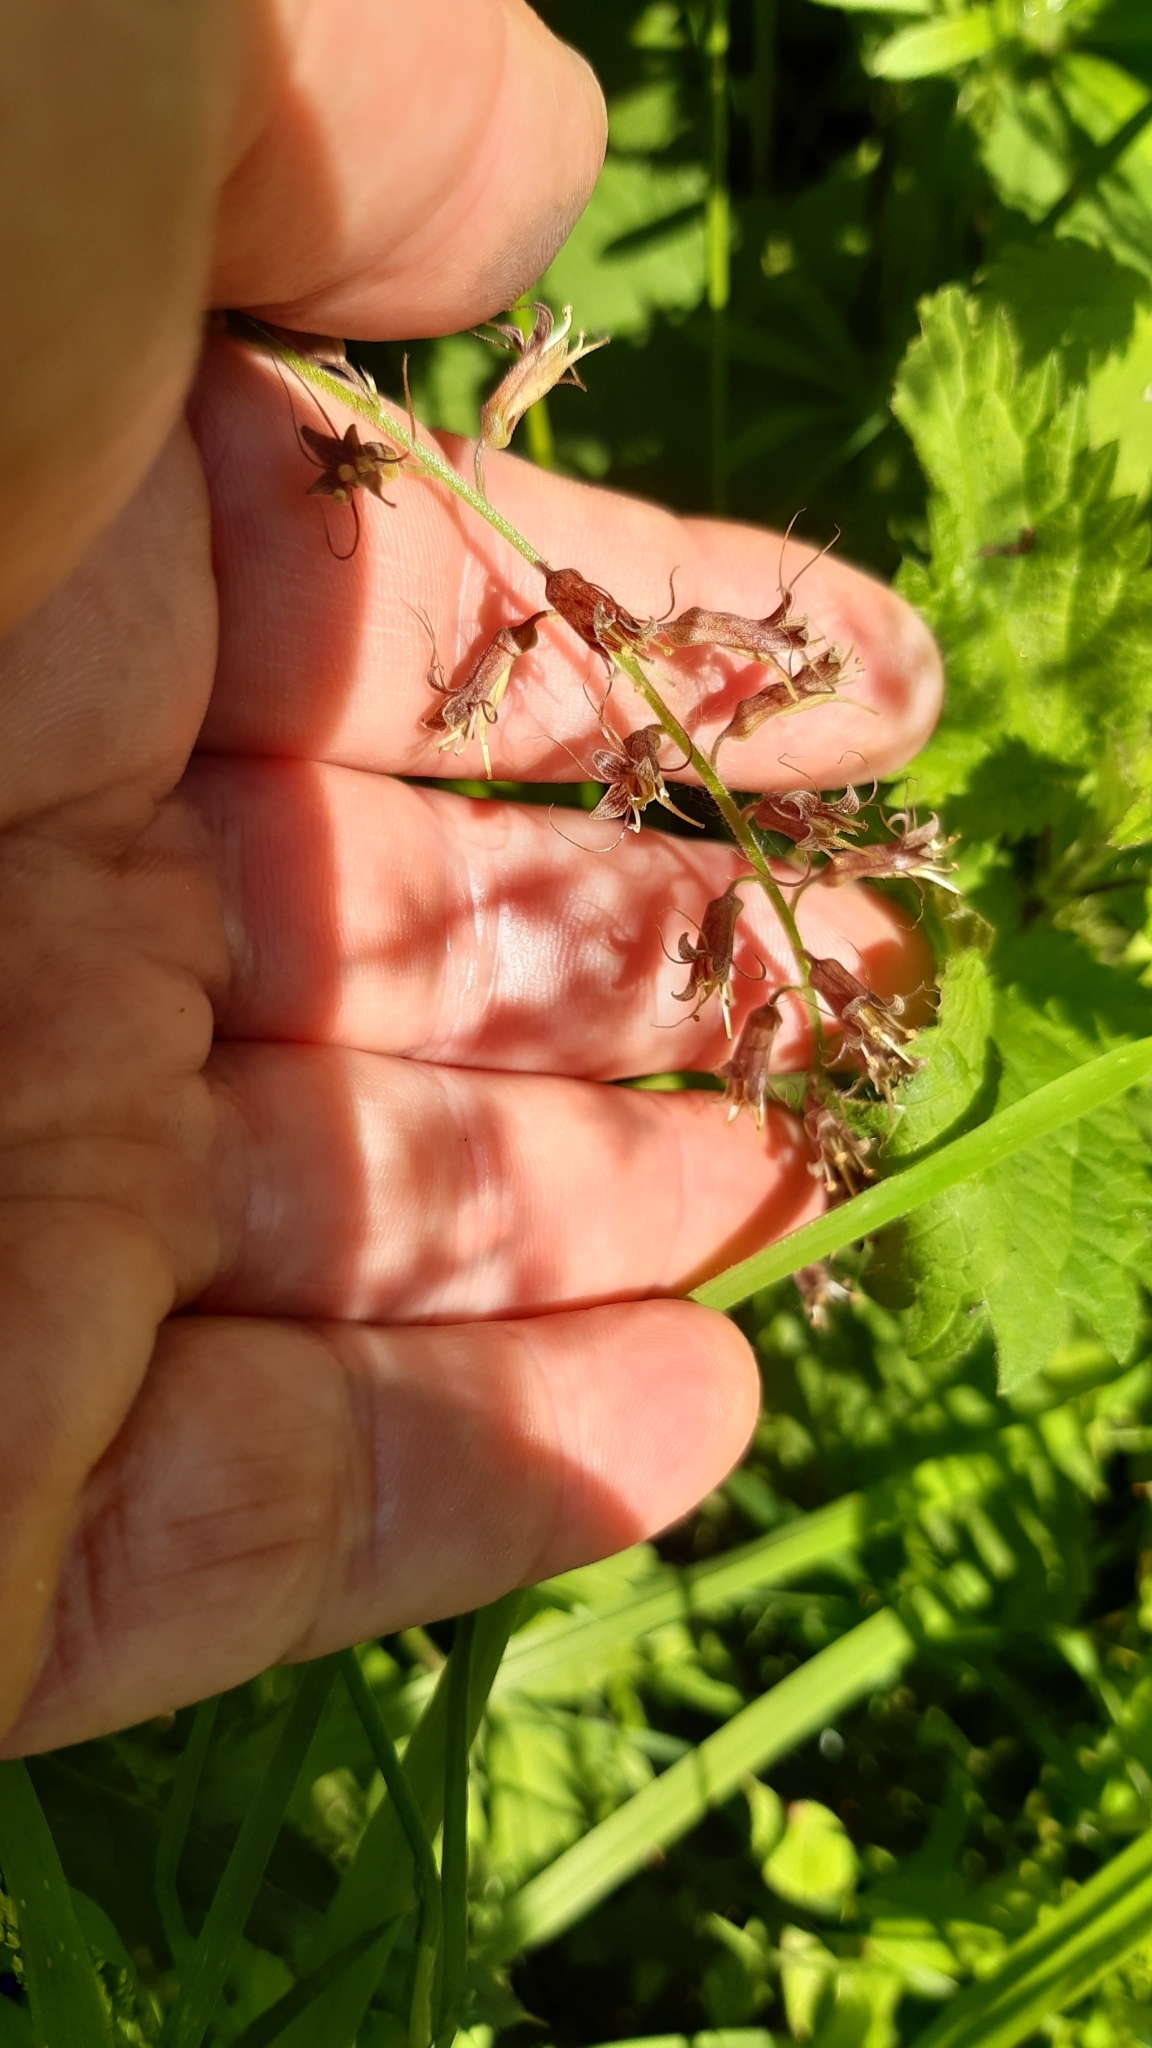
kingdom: Plantae
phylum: Tracheophyta
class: Magnoliopsida
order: Saxifragales
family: Saxifragaceae
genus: Tolmiea
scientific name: Tolmiea menziesii
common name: Pick-a-back-plant
